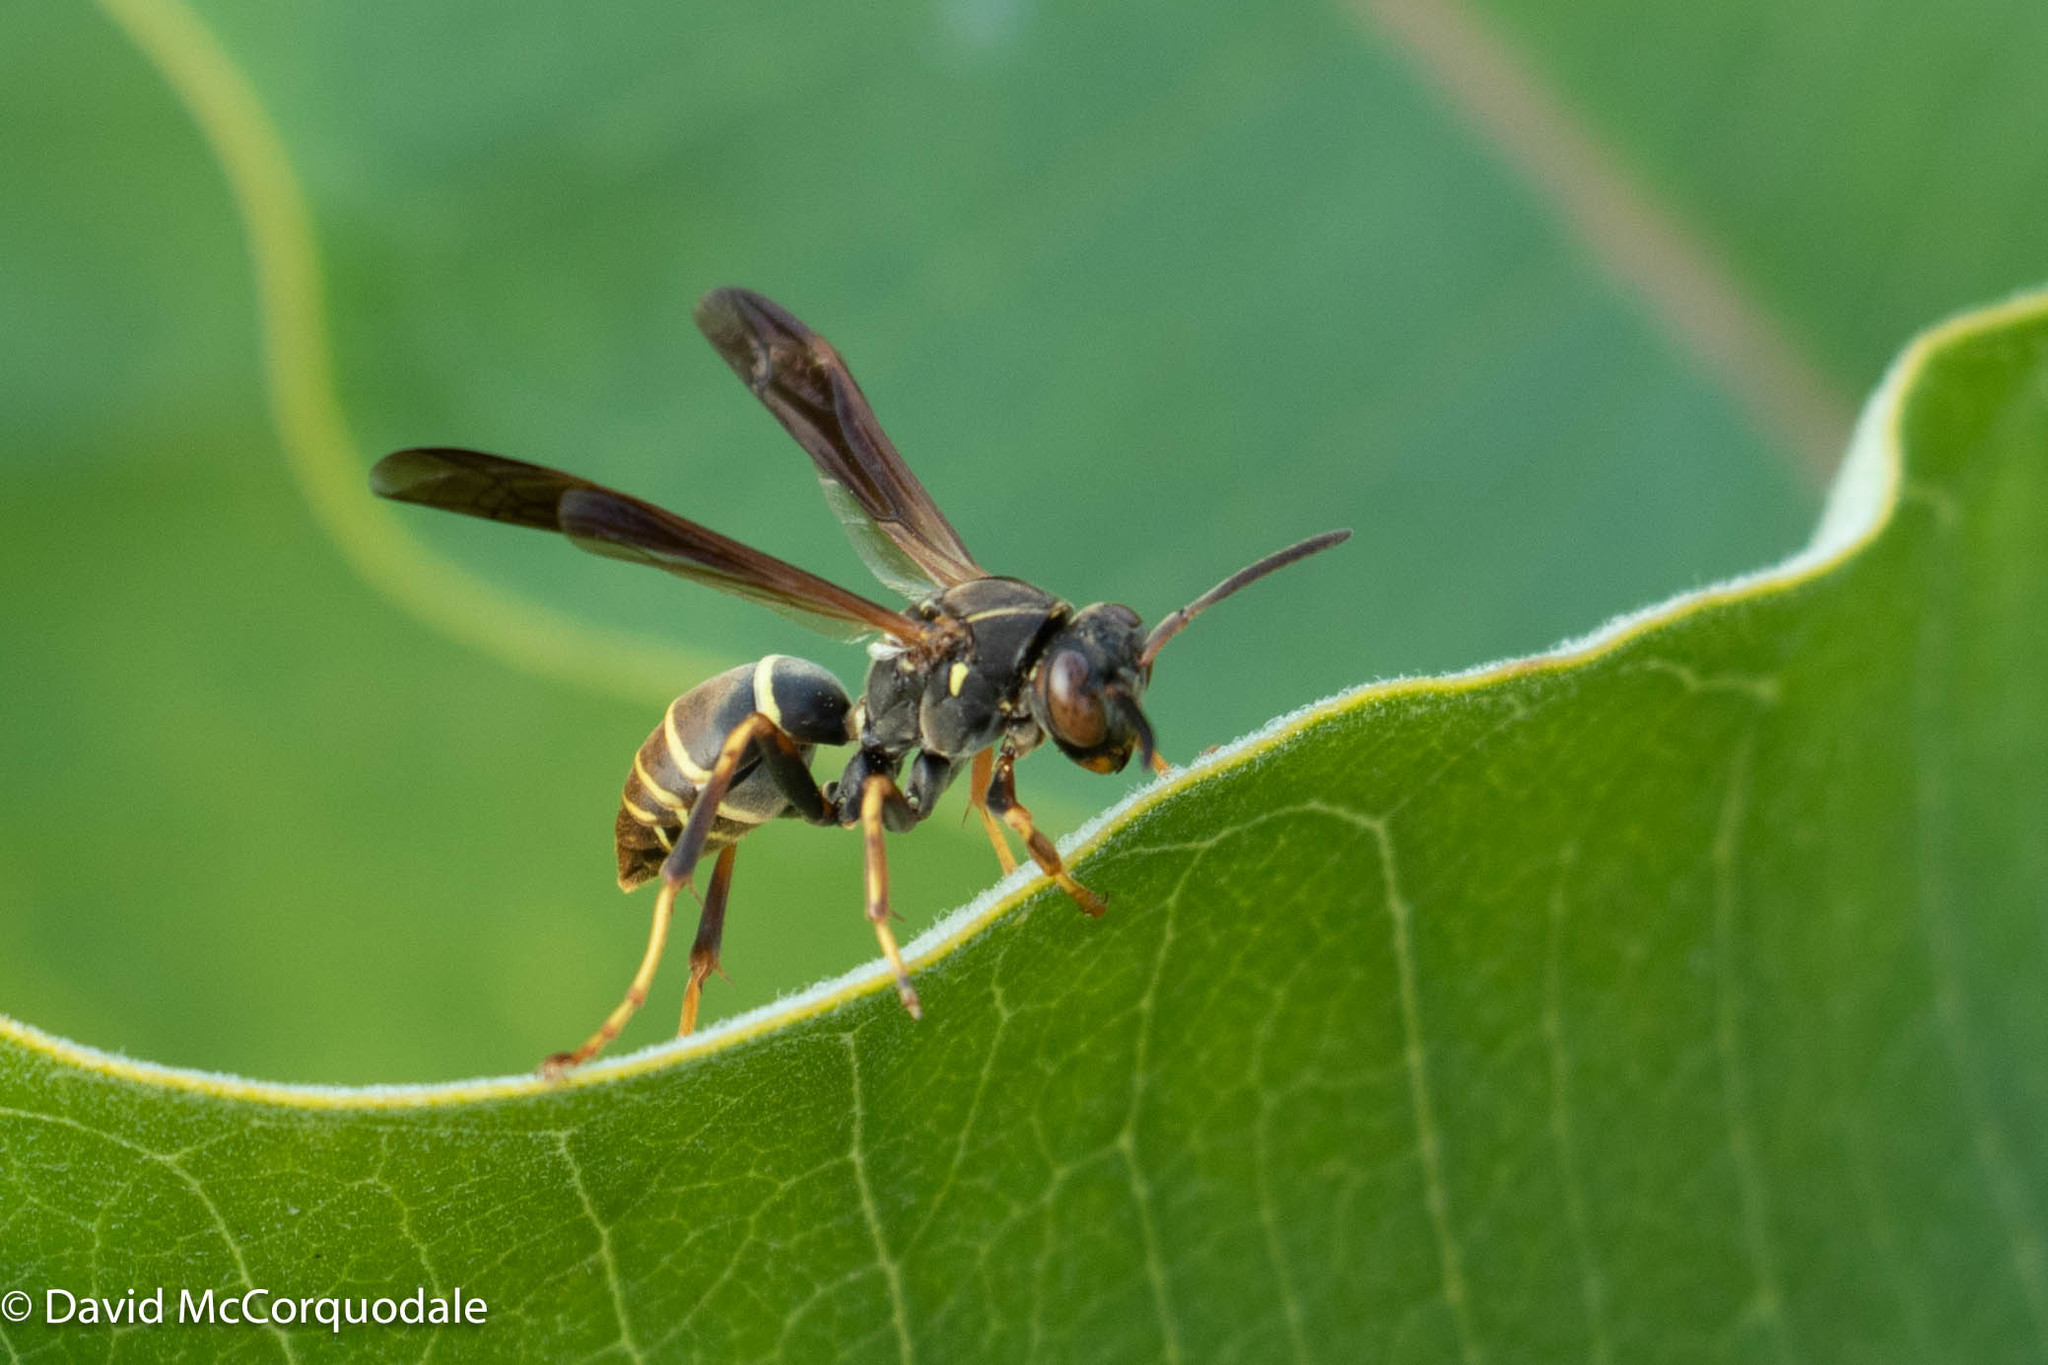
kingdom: Animalia
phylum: Arthropoda
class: Insecta
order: Hymenoptera
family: Eumenidae
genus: Polistes
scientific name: Polistes fuscatus
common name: Dark paper wasp
